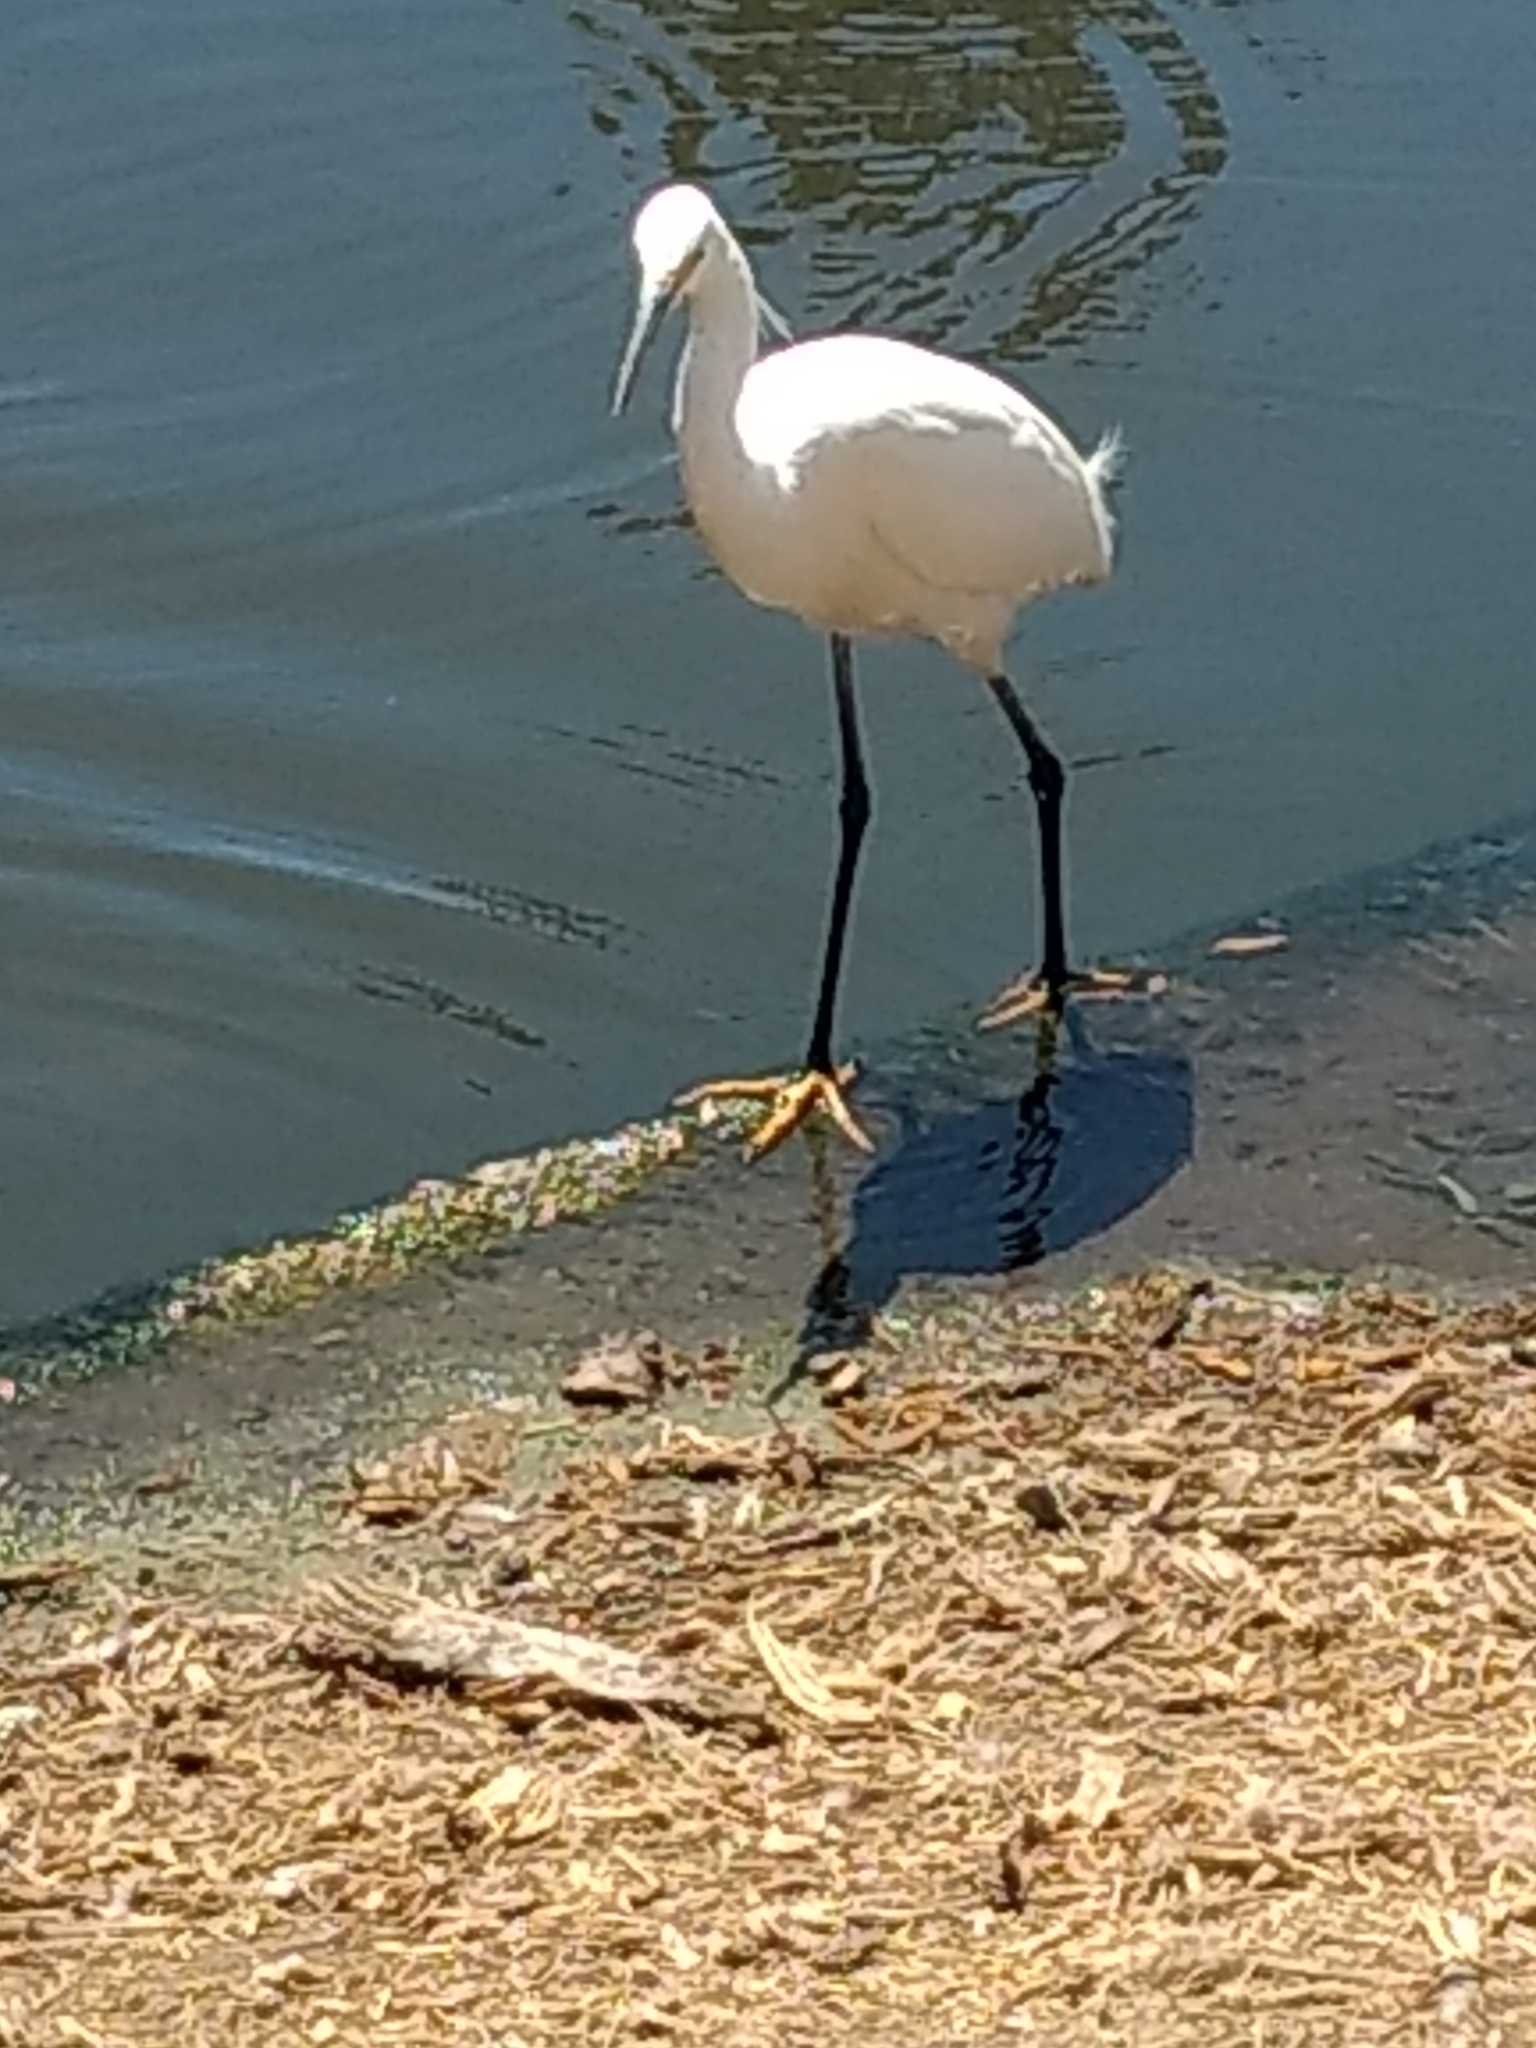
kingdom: Animalia
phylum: Chordata
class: Aves
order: Pelecaniformes
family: Ardeidae
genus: Egretta
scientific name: Egretta thula
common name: Snowy egret
